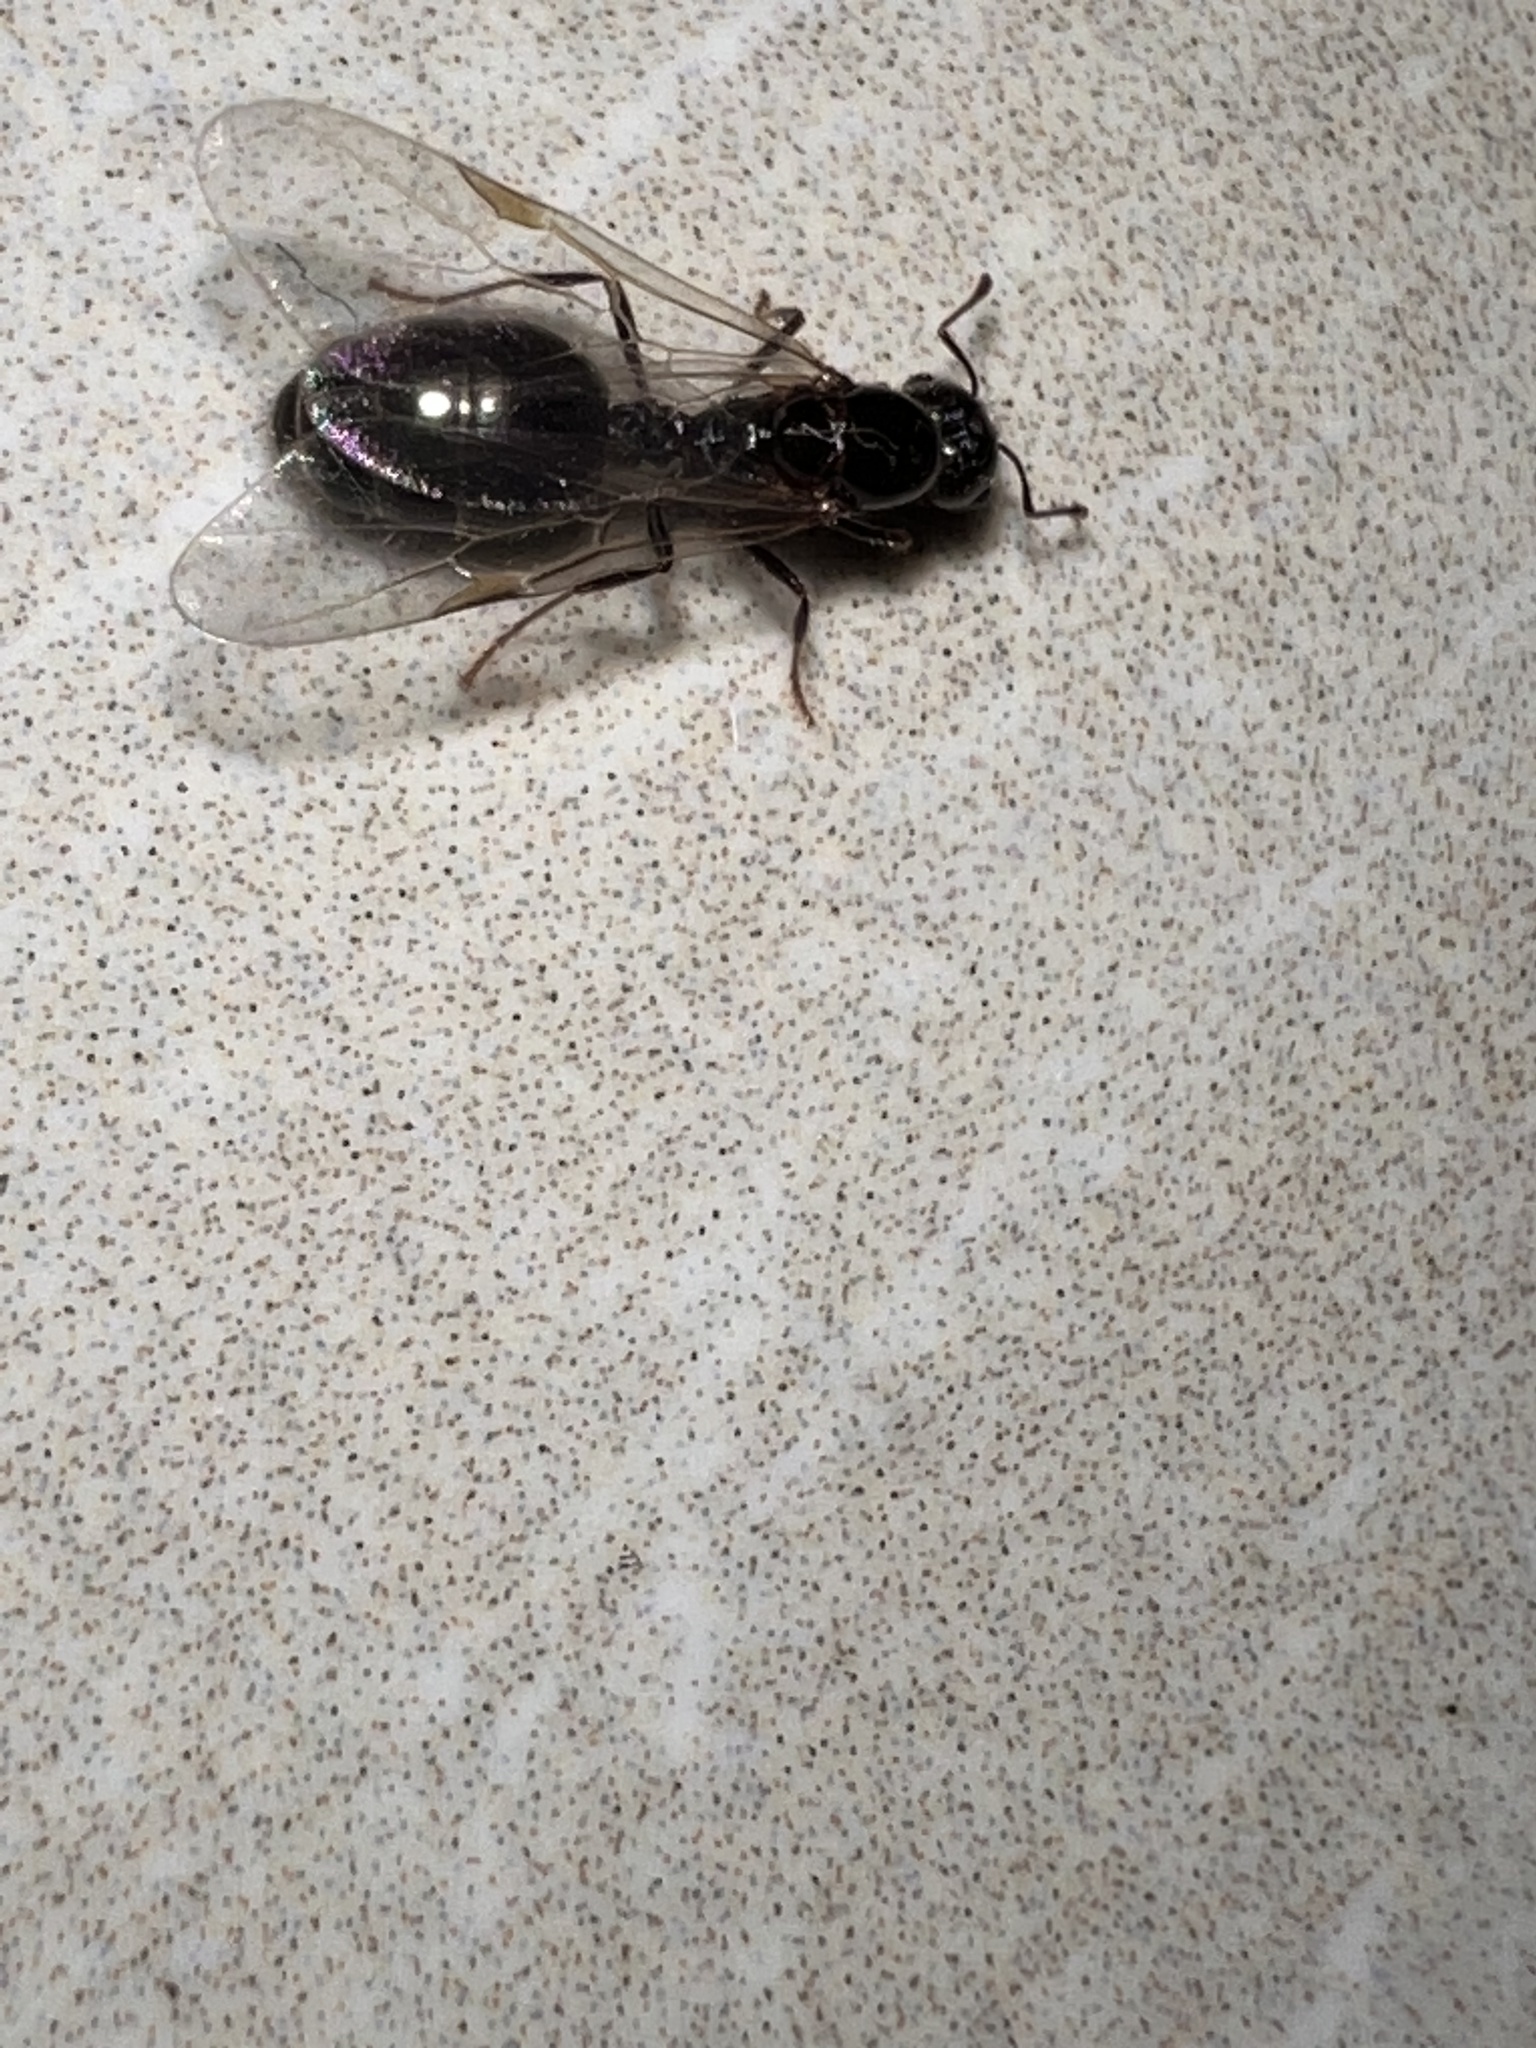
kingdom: Animalia
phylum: Arthropoda
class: Insecta
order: Hymenoptera
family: Formicidae
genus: Solenopsis
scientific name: Solenopsis geminata
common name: Tropical fire ant
